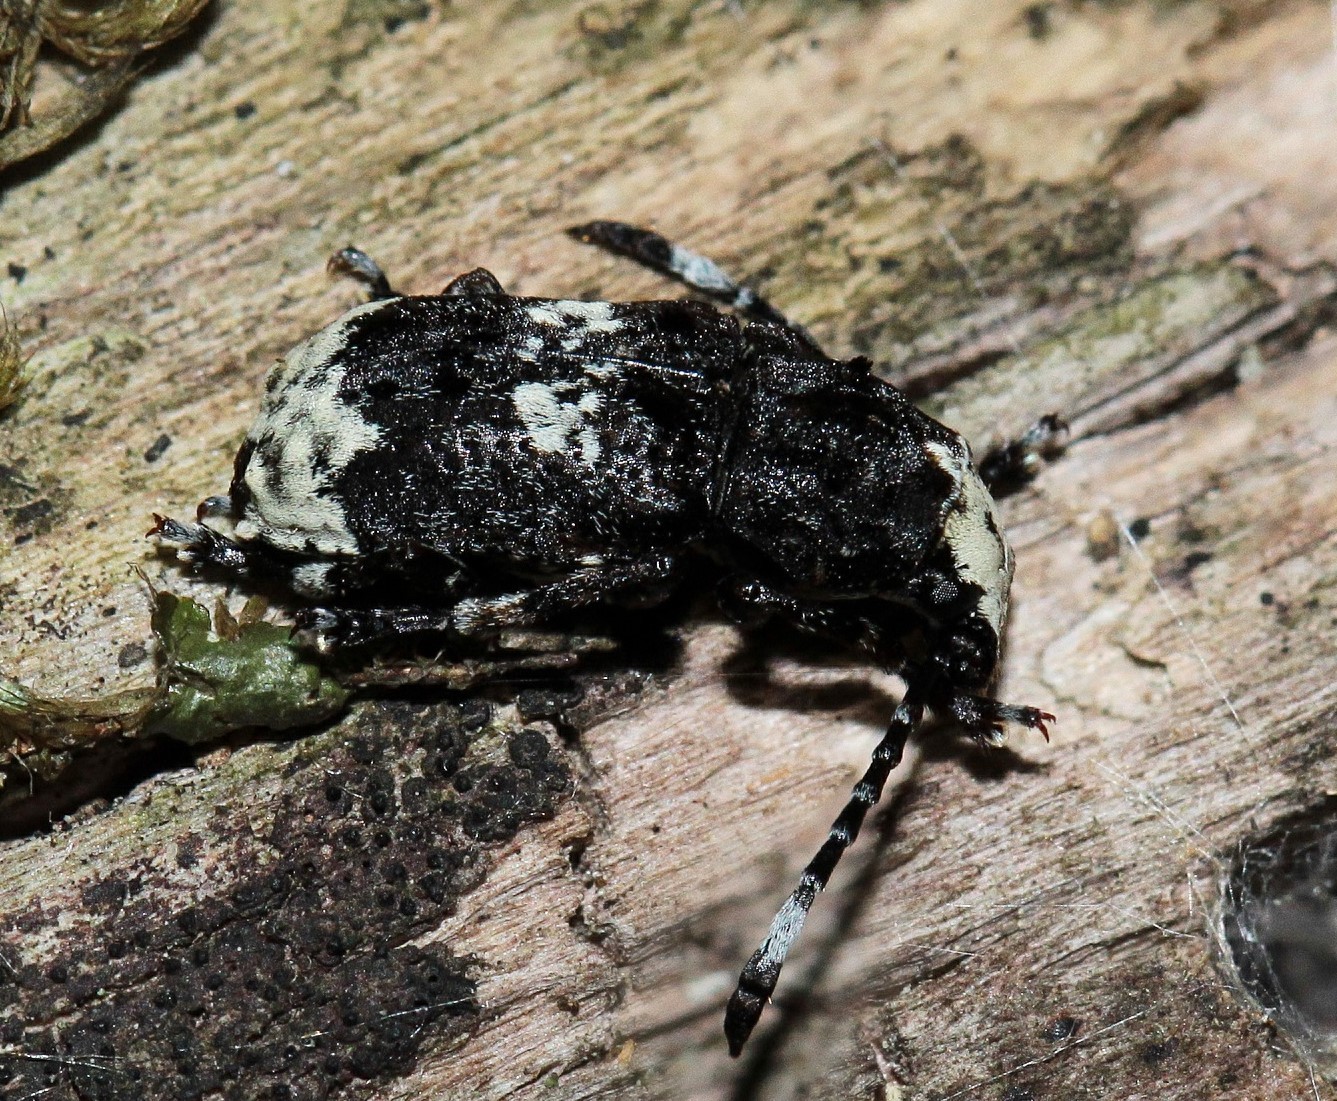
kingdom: Animalia
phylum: Arthropoda
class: Insecta
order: Coleoptera
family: Anthribidae
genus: Platystomos
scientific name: Platystomos albinus
